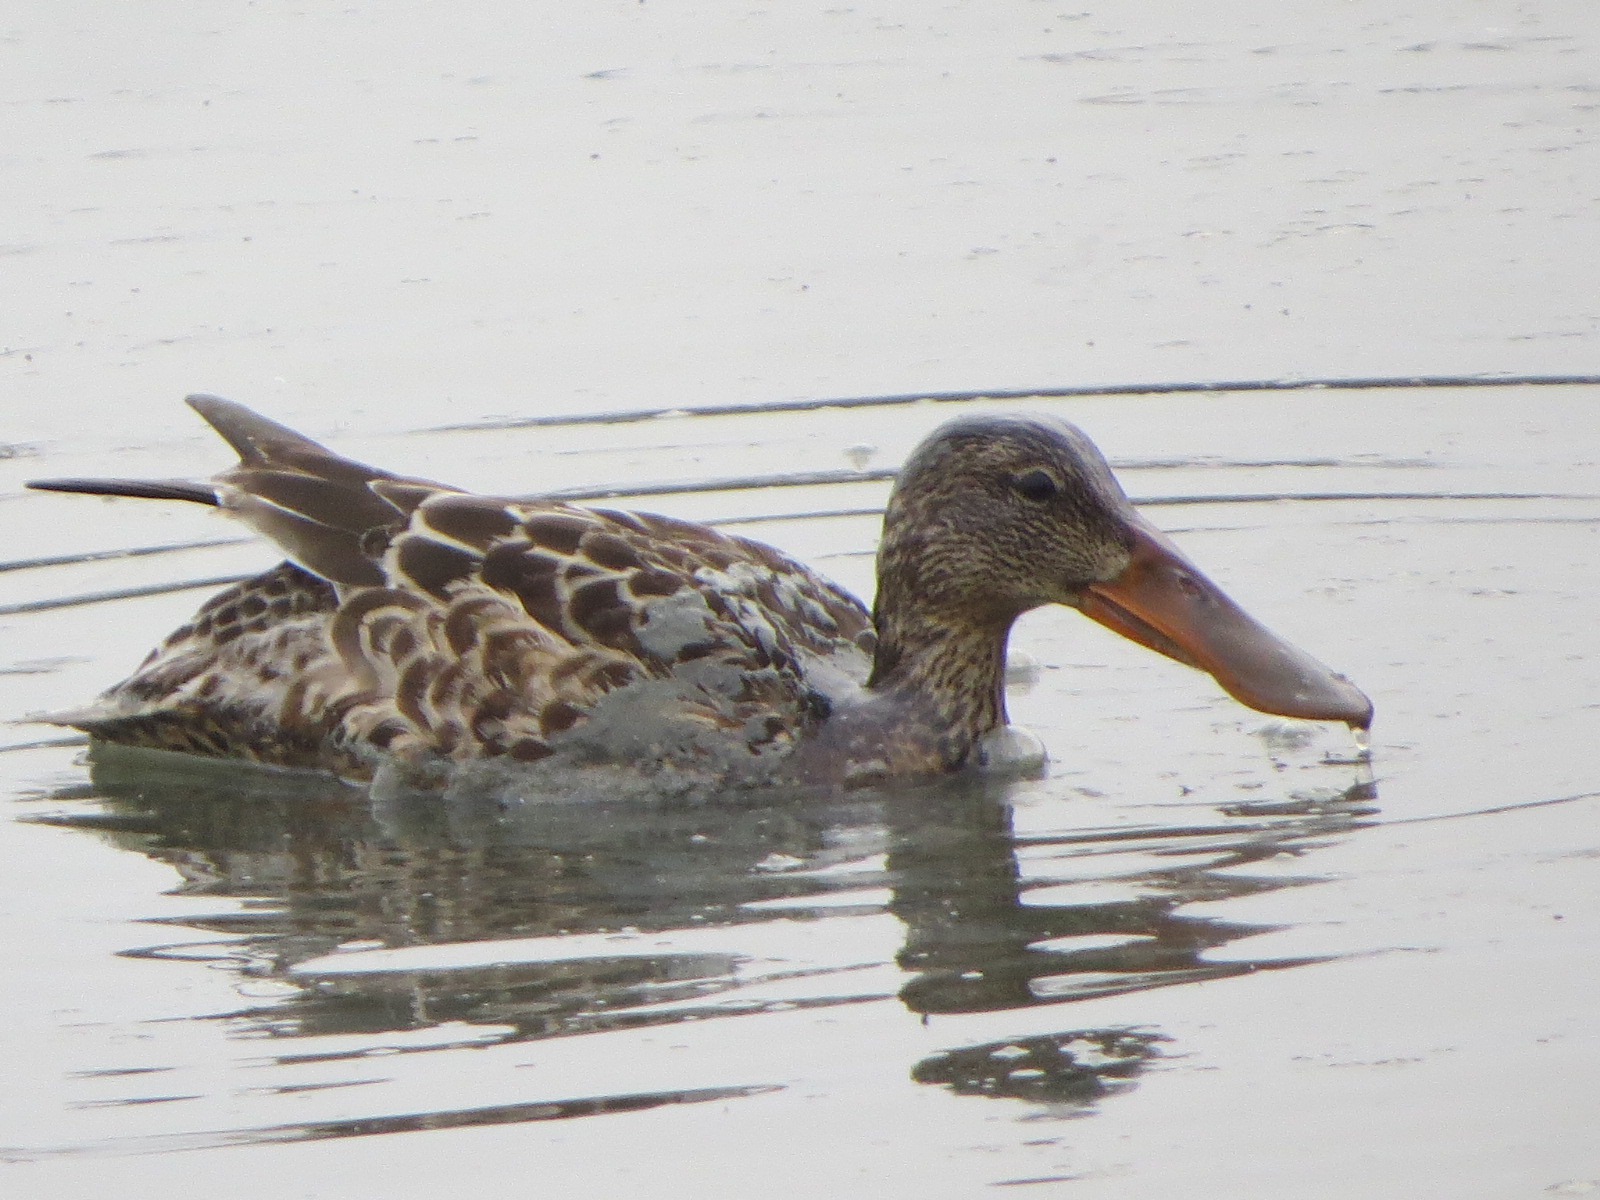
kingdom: Animalia
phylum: Chordata
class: Aves
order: Anseriformes
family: Anatidae
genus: Spatula
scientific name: Spatula clypeata
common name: Northern shoveler
